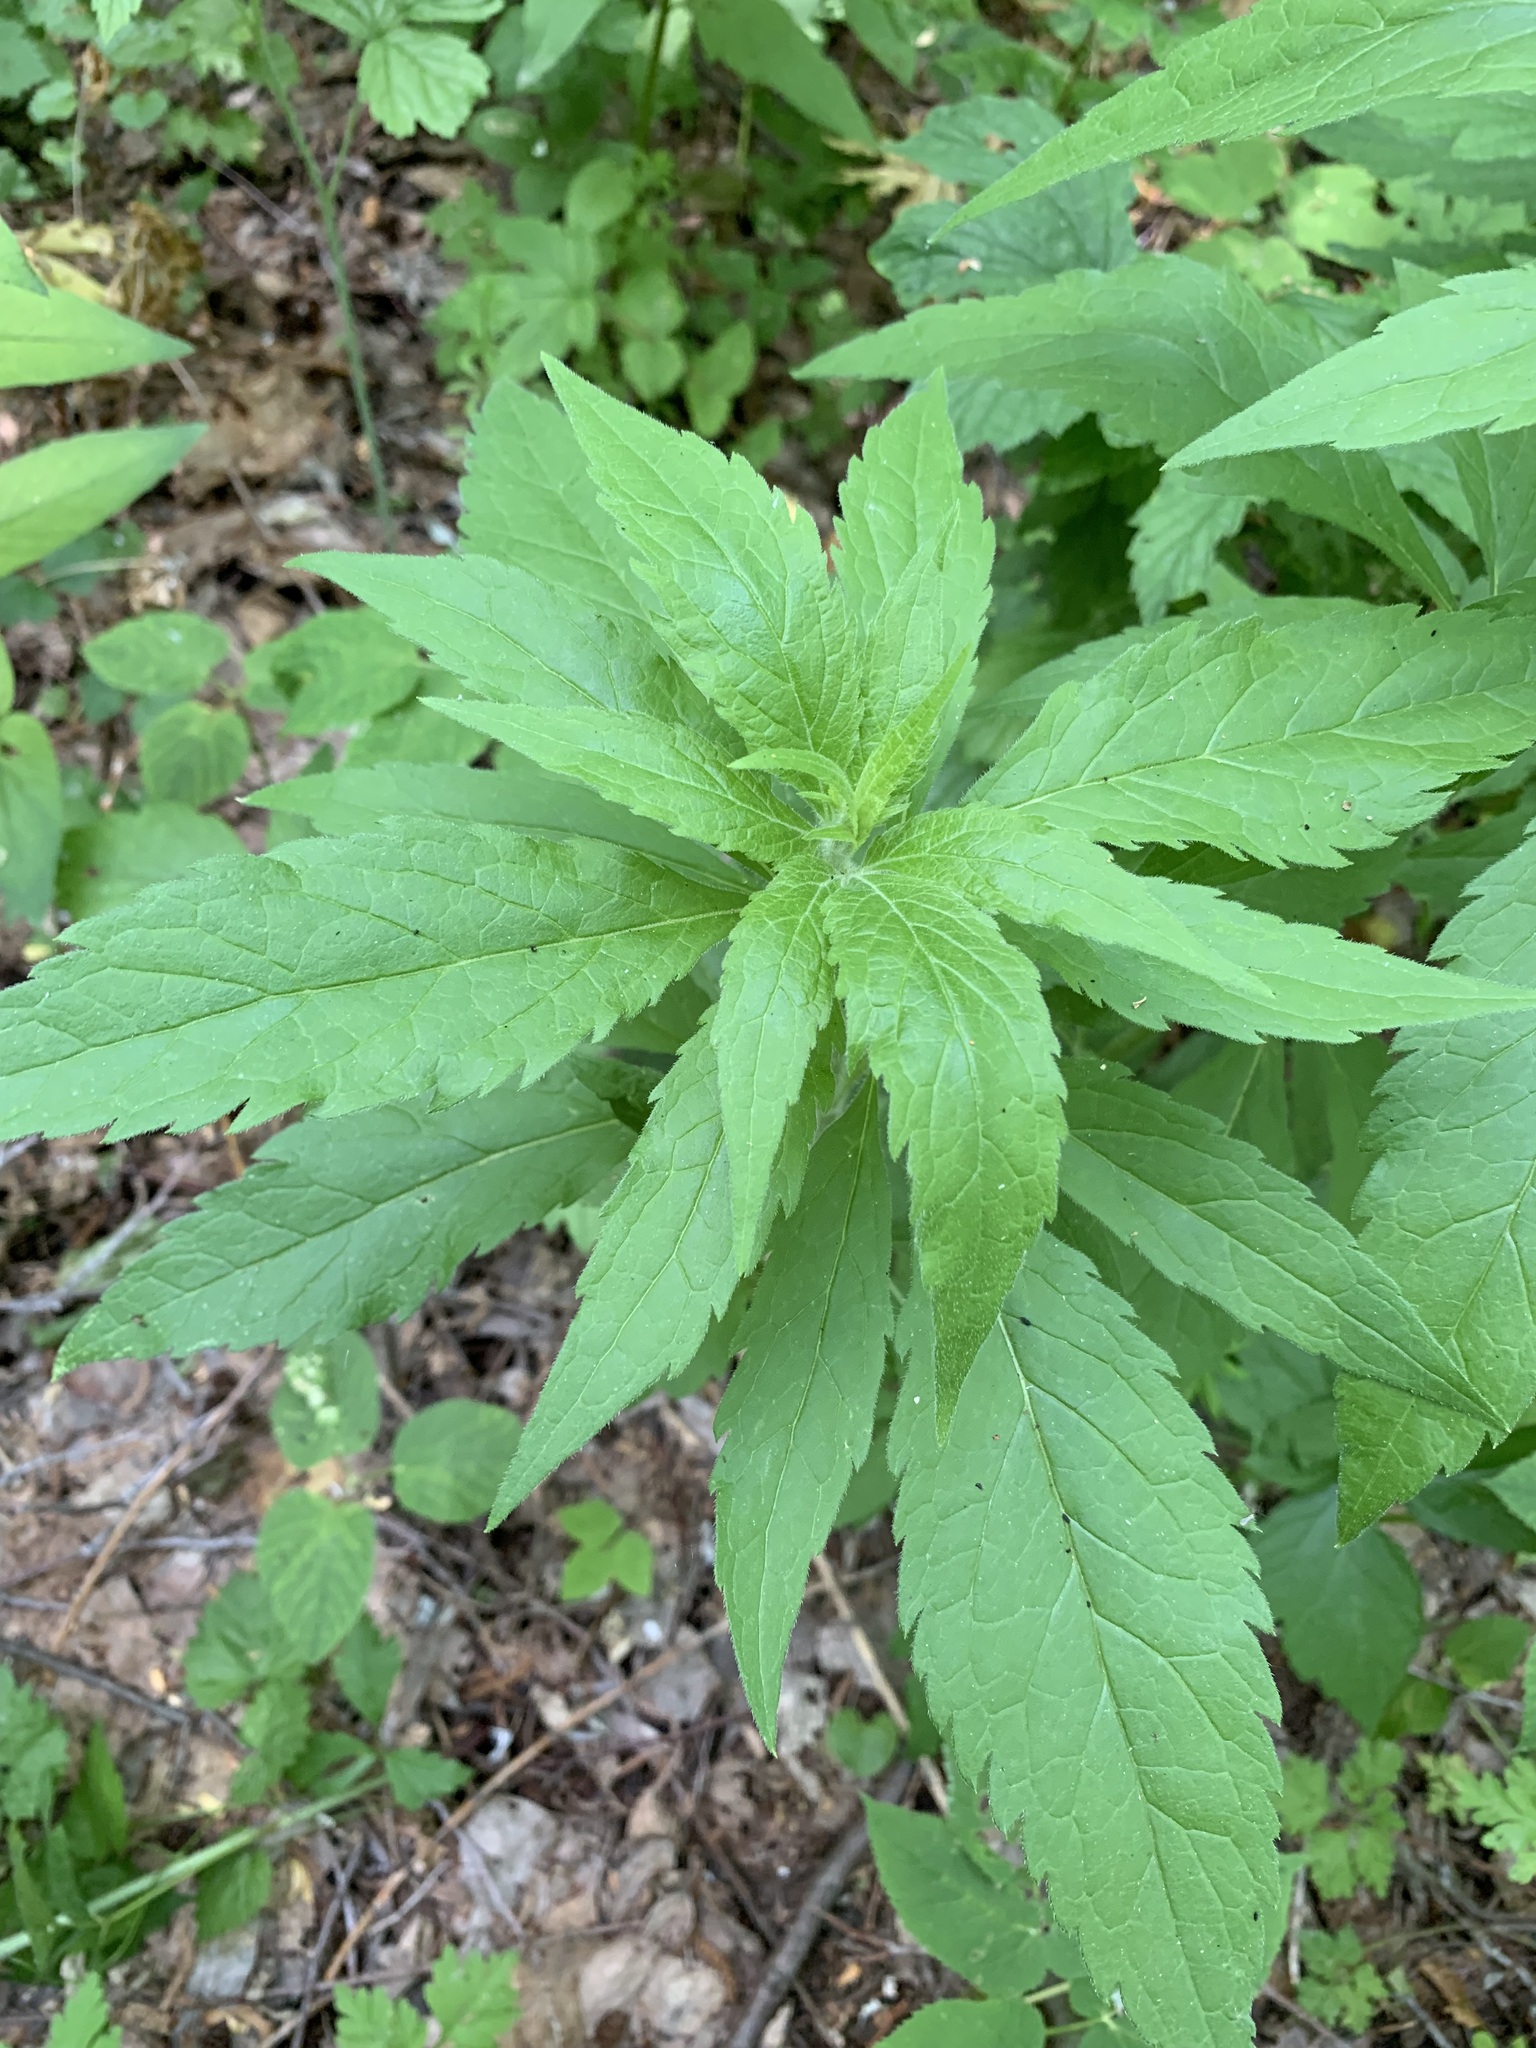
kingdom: Plantae
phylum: Tracheophyta
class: Magnoliopsida
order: Asterales
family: Asteraceae
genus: Eupatorium
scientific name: Eupatorium cannabinum
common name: Hemp-agrimony
